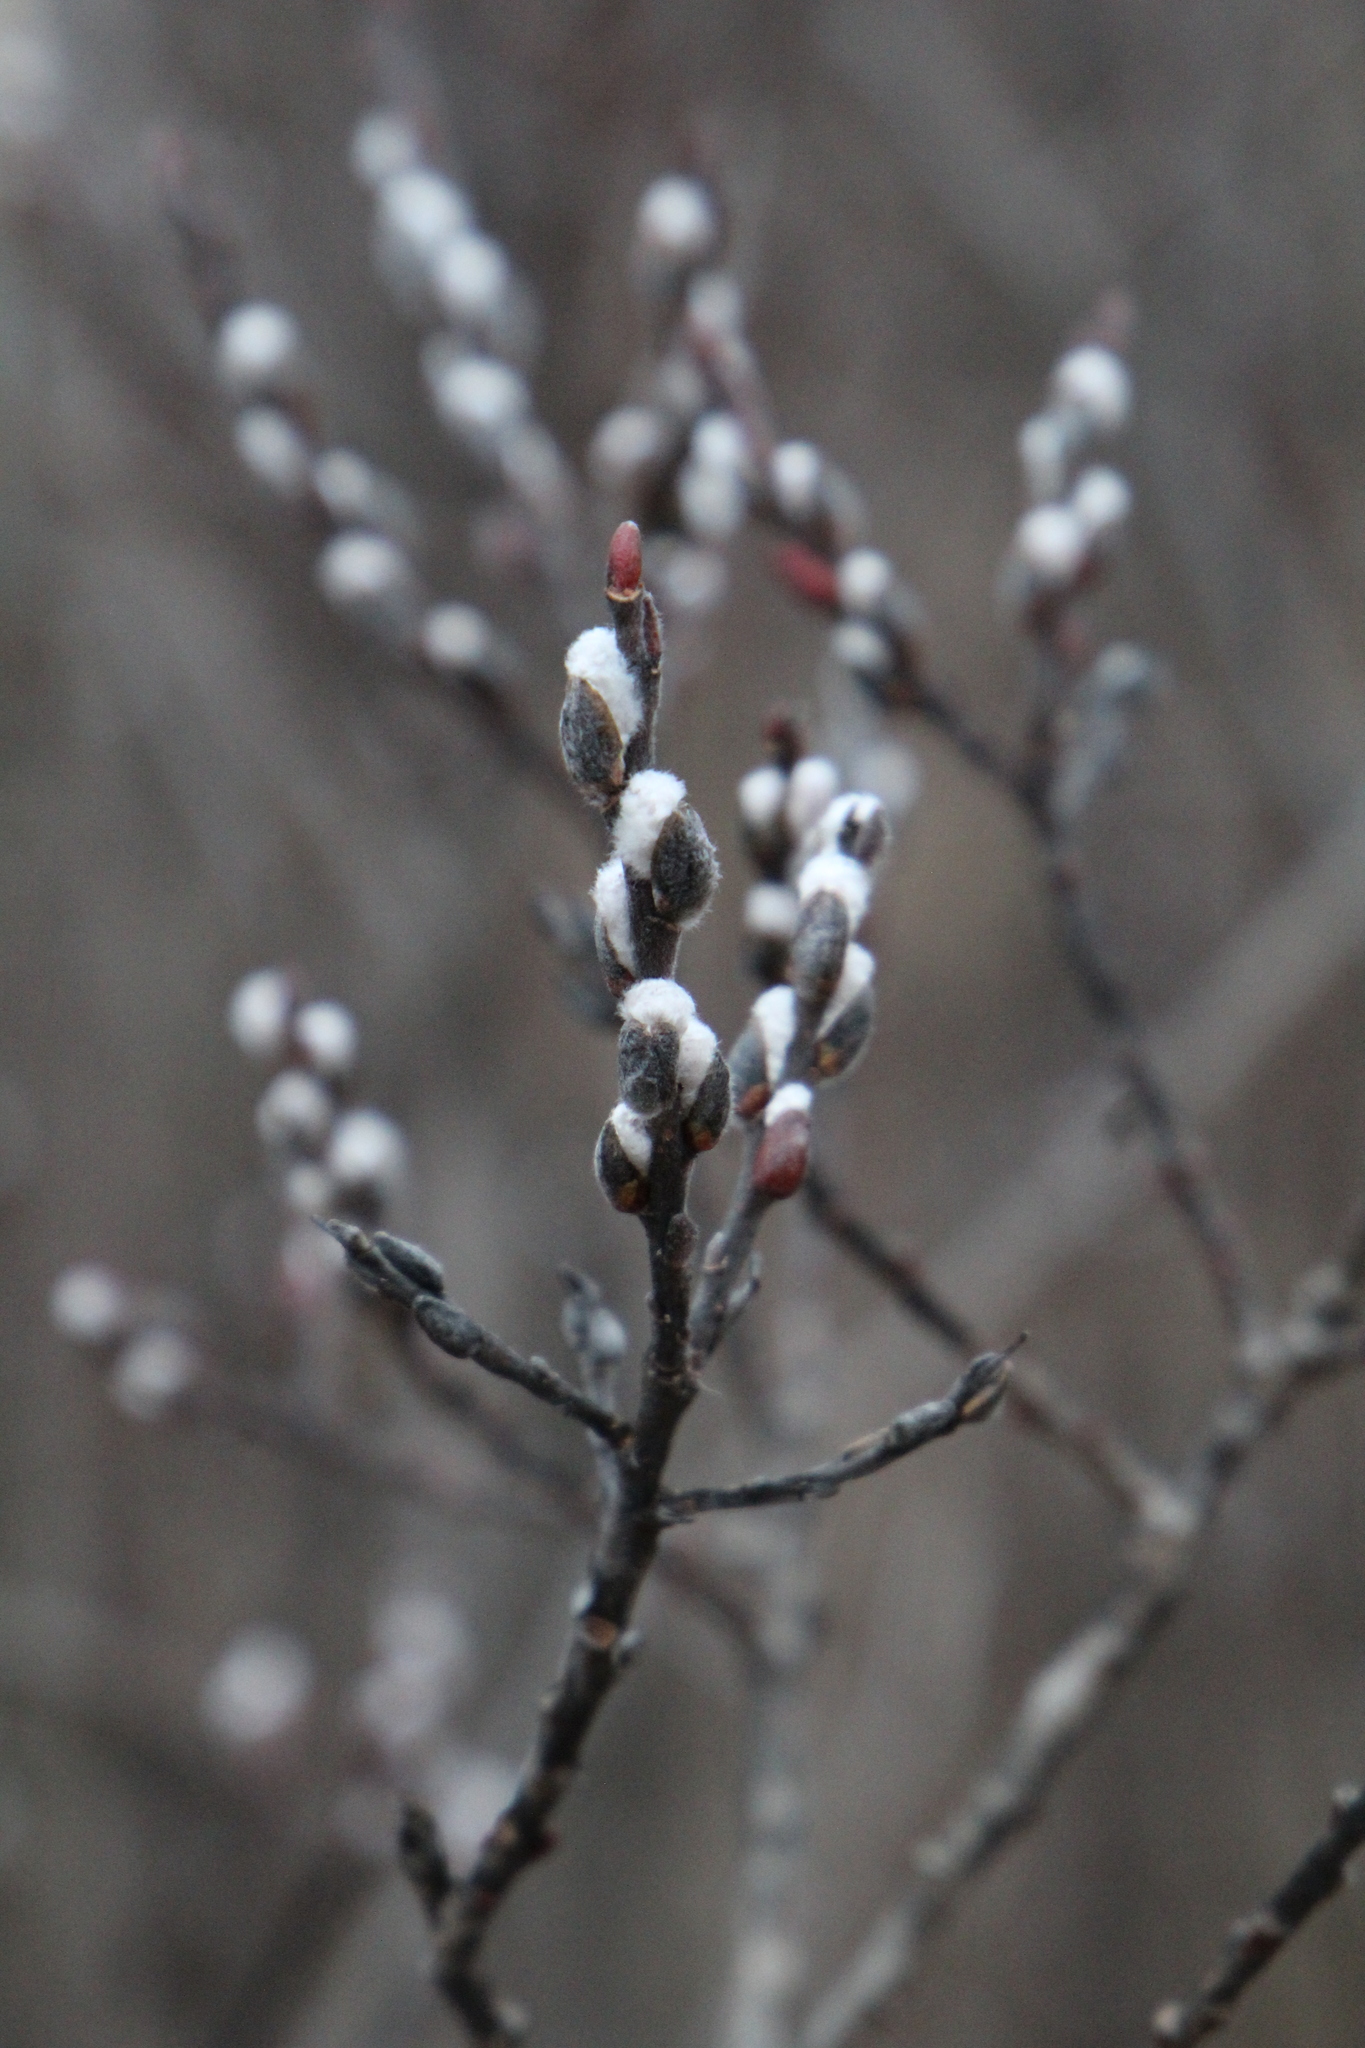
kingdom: Plantae
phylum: Tracheophyta
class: Magnoliopsida
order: Malpighiales
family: Salicaceae
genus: Salix
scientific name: Salix discolor
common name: Glaucous willow
